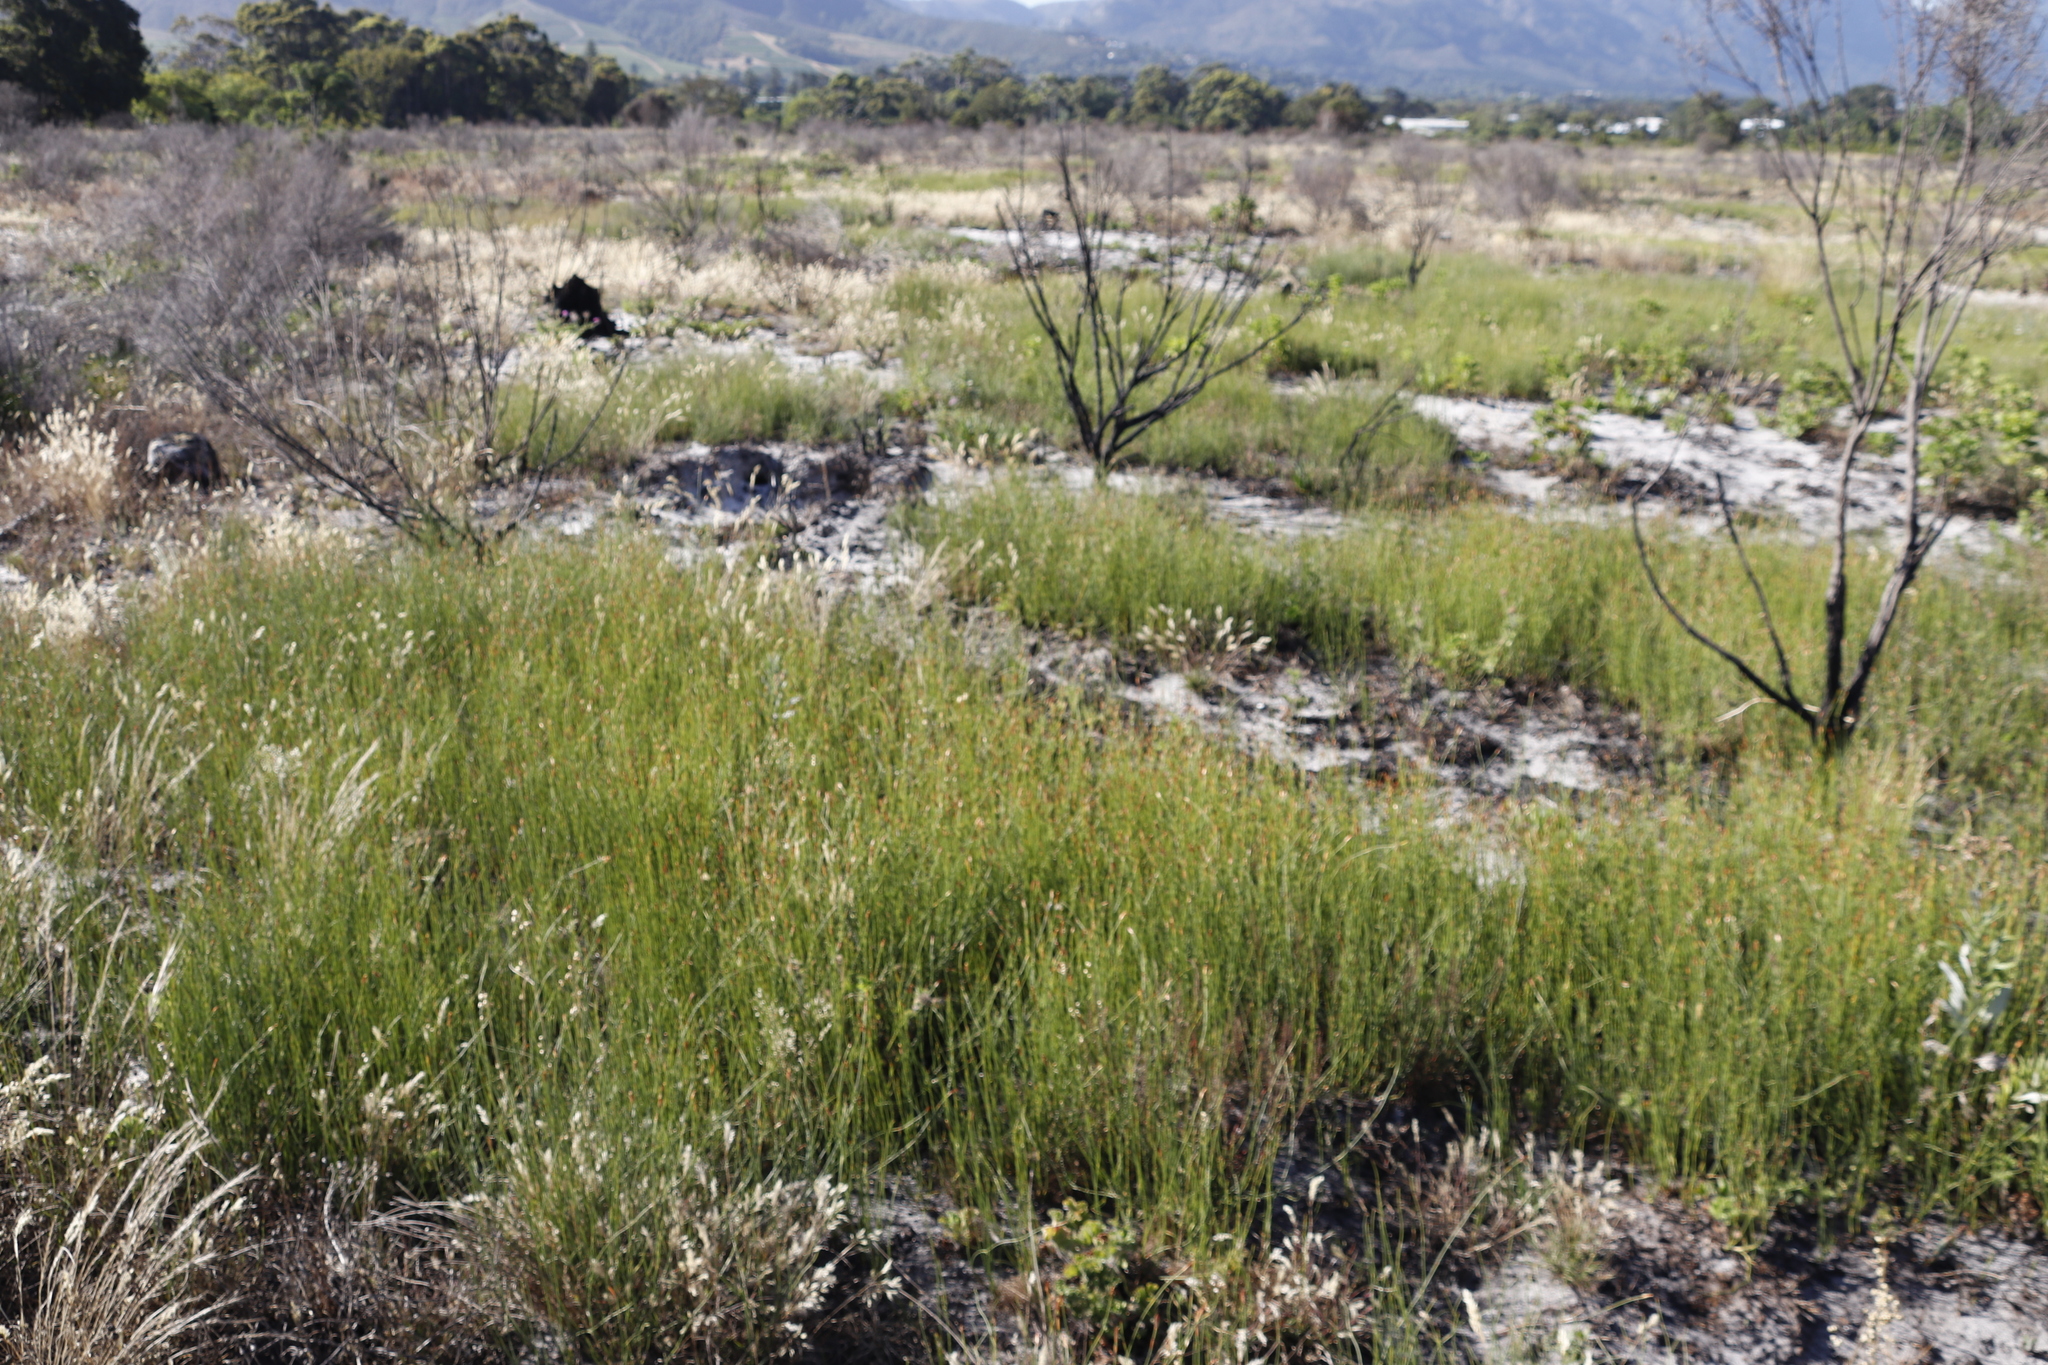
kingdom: Plantae
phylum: Tracheophyta
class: Liliopsida
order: Poales
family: Restionaceae
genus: Willdenowia
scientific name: Willdenowia sulcata
